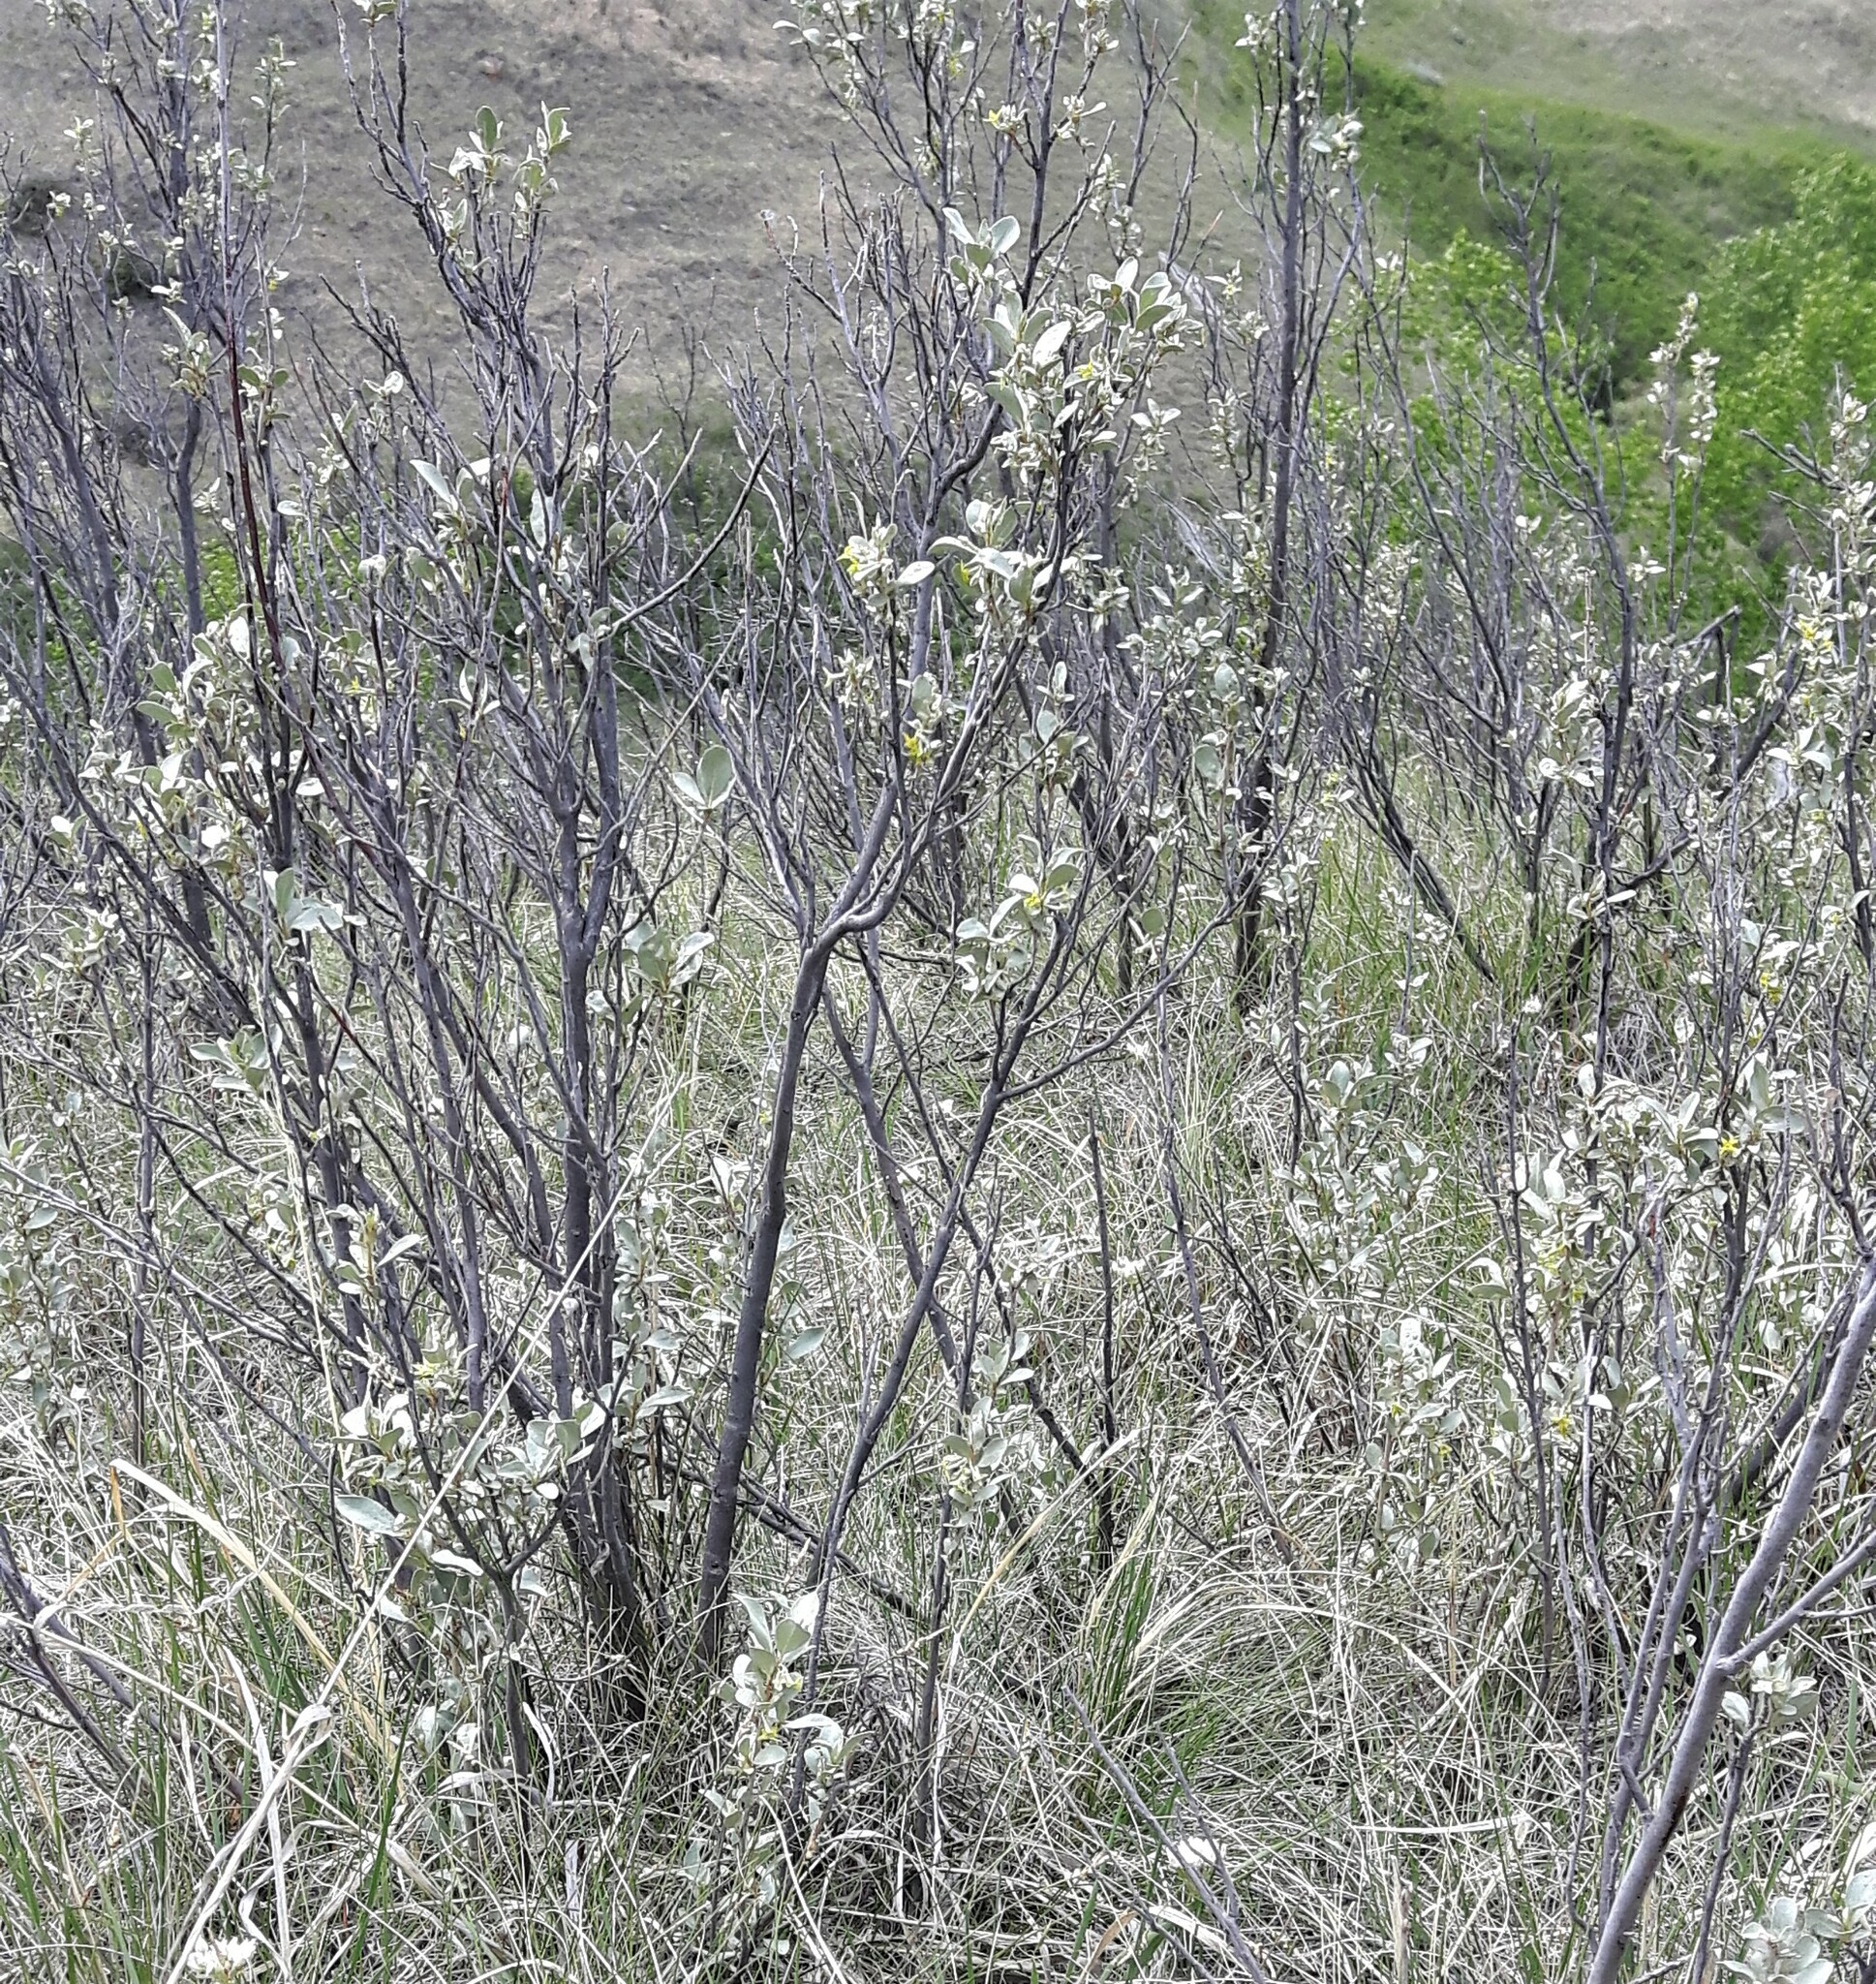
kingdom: Plantae
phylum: Tracheophyta
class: Magnoliopsida
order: Rosales
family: Elaeagnaceae
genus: Elaeagnus
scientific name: Elaeagnus commutata
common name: Silverberry
